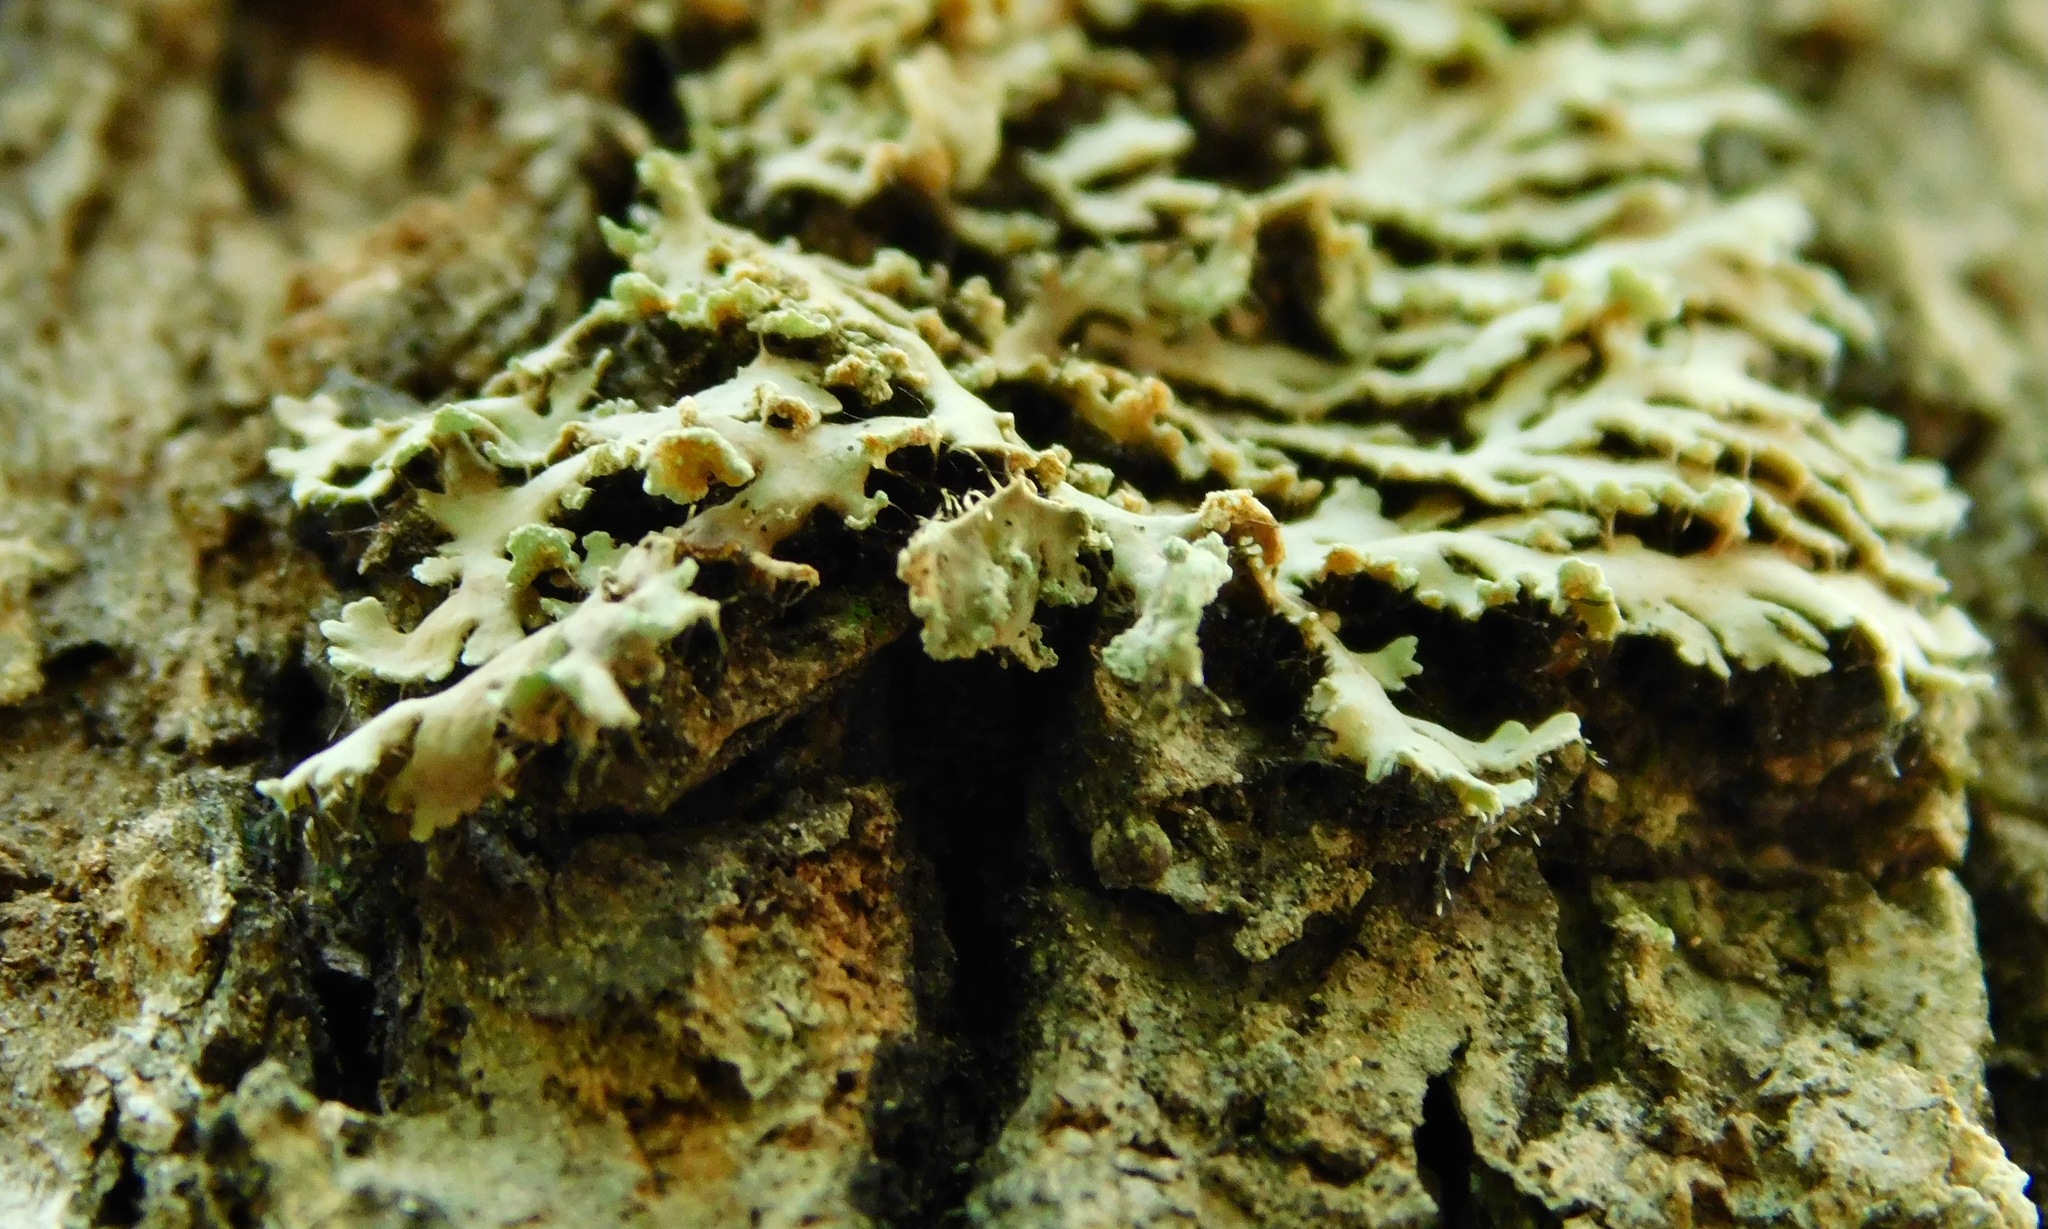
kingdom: Fungi
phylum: Ascomycota
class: Lecanoromycetes
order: Caliciales
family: Physciaceae
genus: Heterodermia
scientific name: Heterodermia obscurata
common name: Coralloid rosette-lichen
